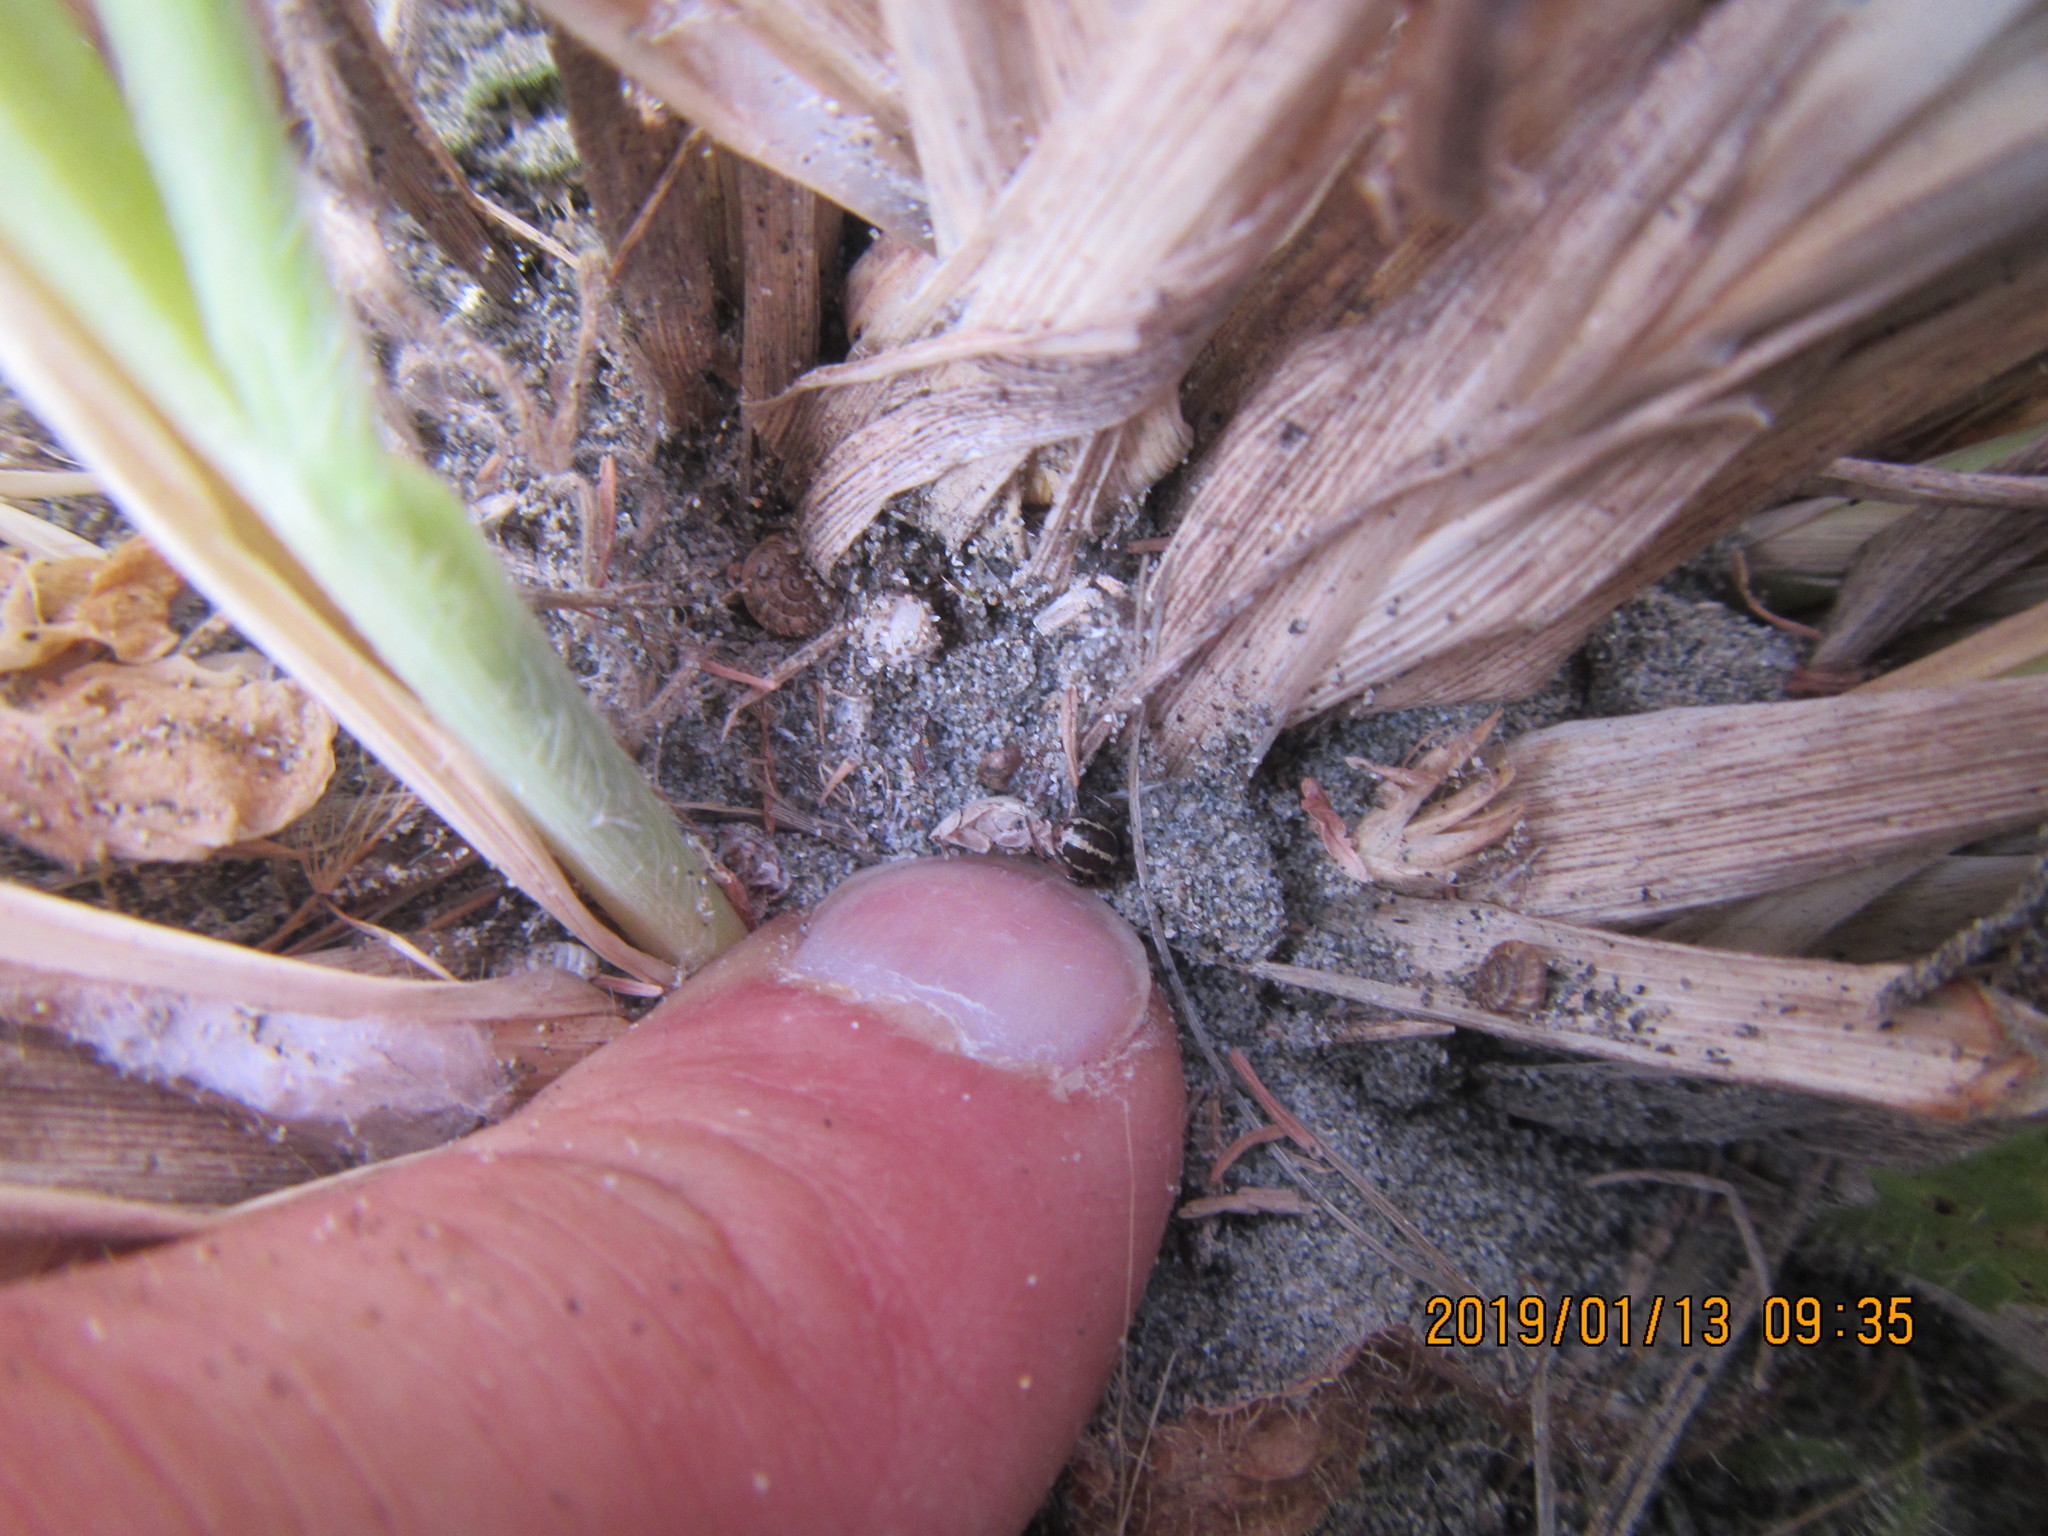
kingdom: Animalia
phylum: Arthropoda
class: Arachnida
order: Araneae
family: Theridiidae
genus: Steatoda
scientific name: Steatoda lepida
